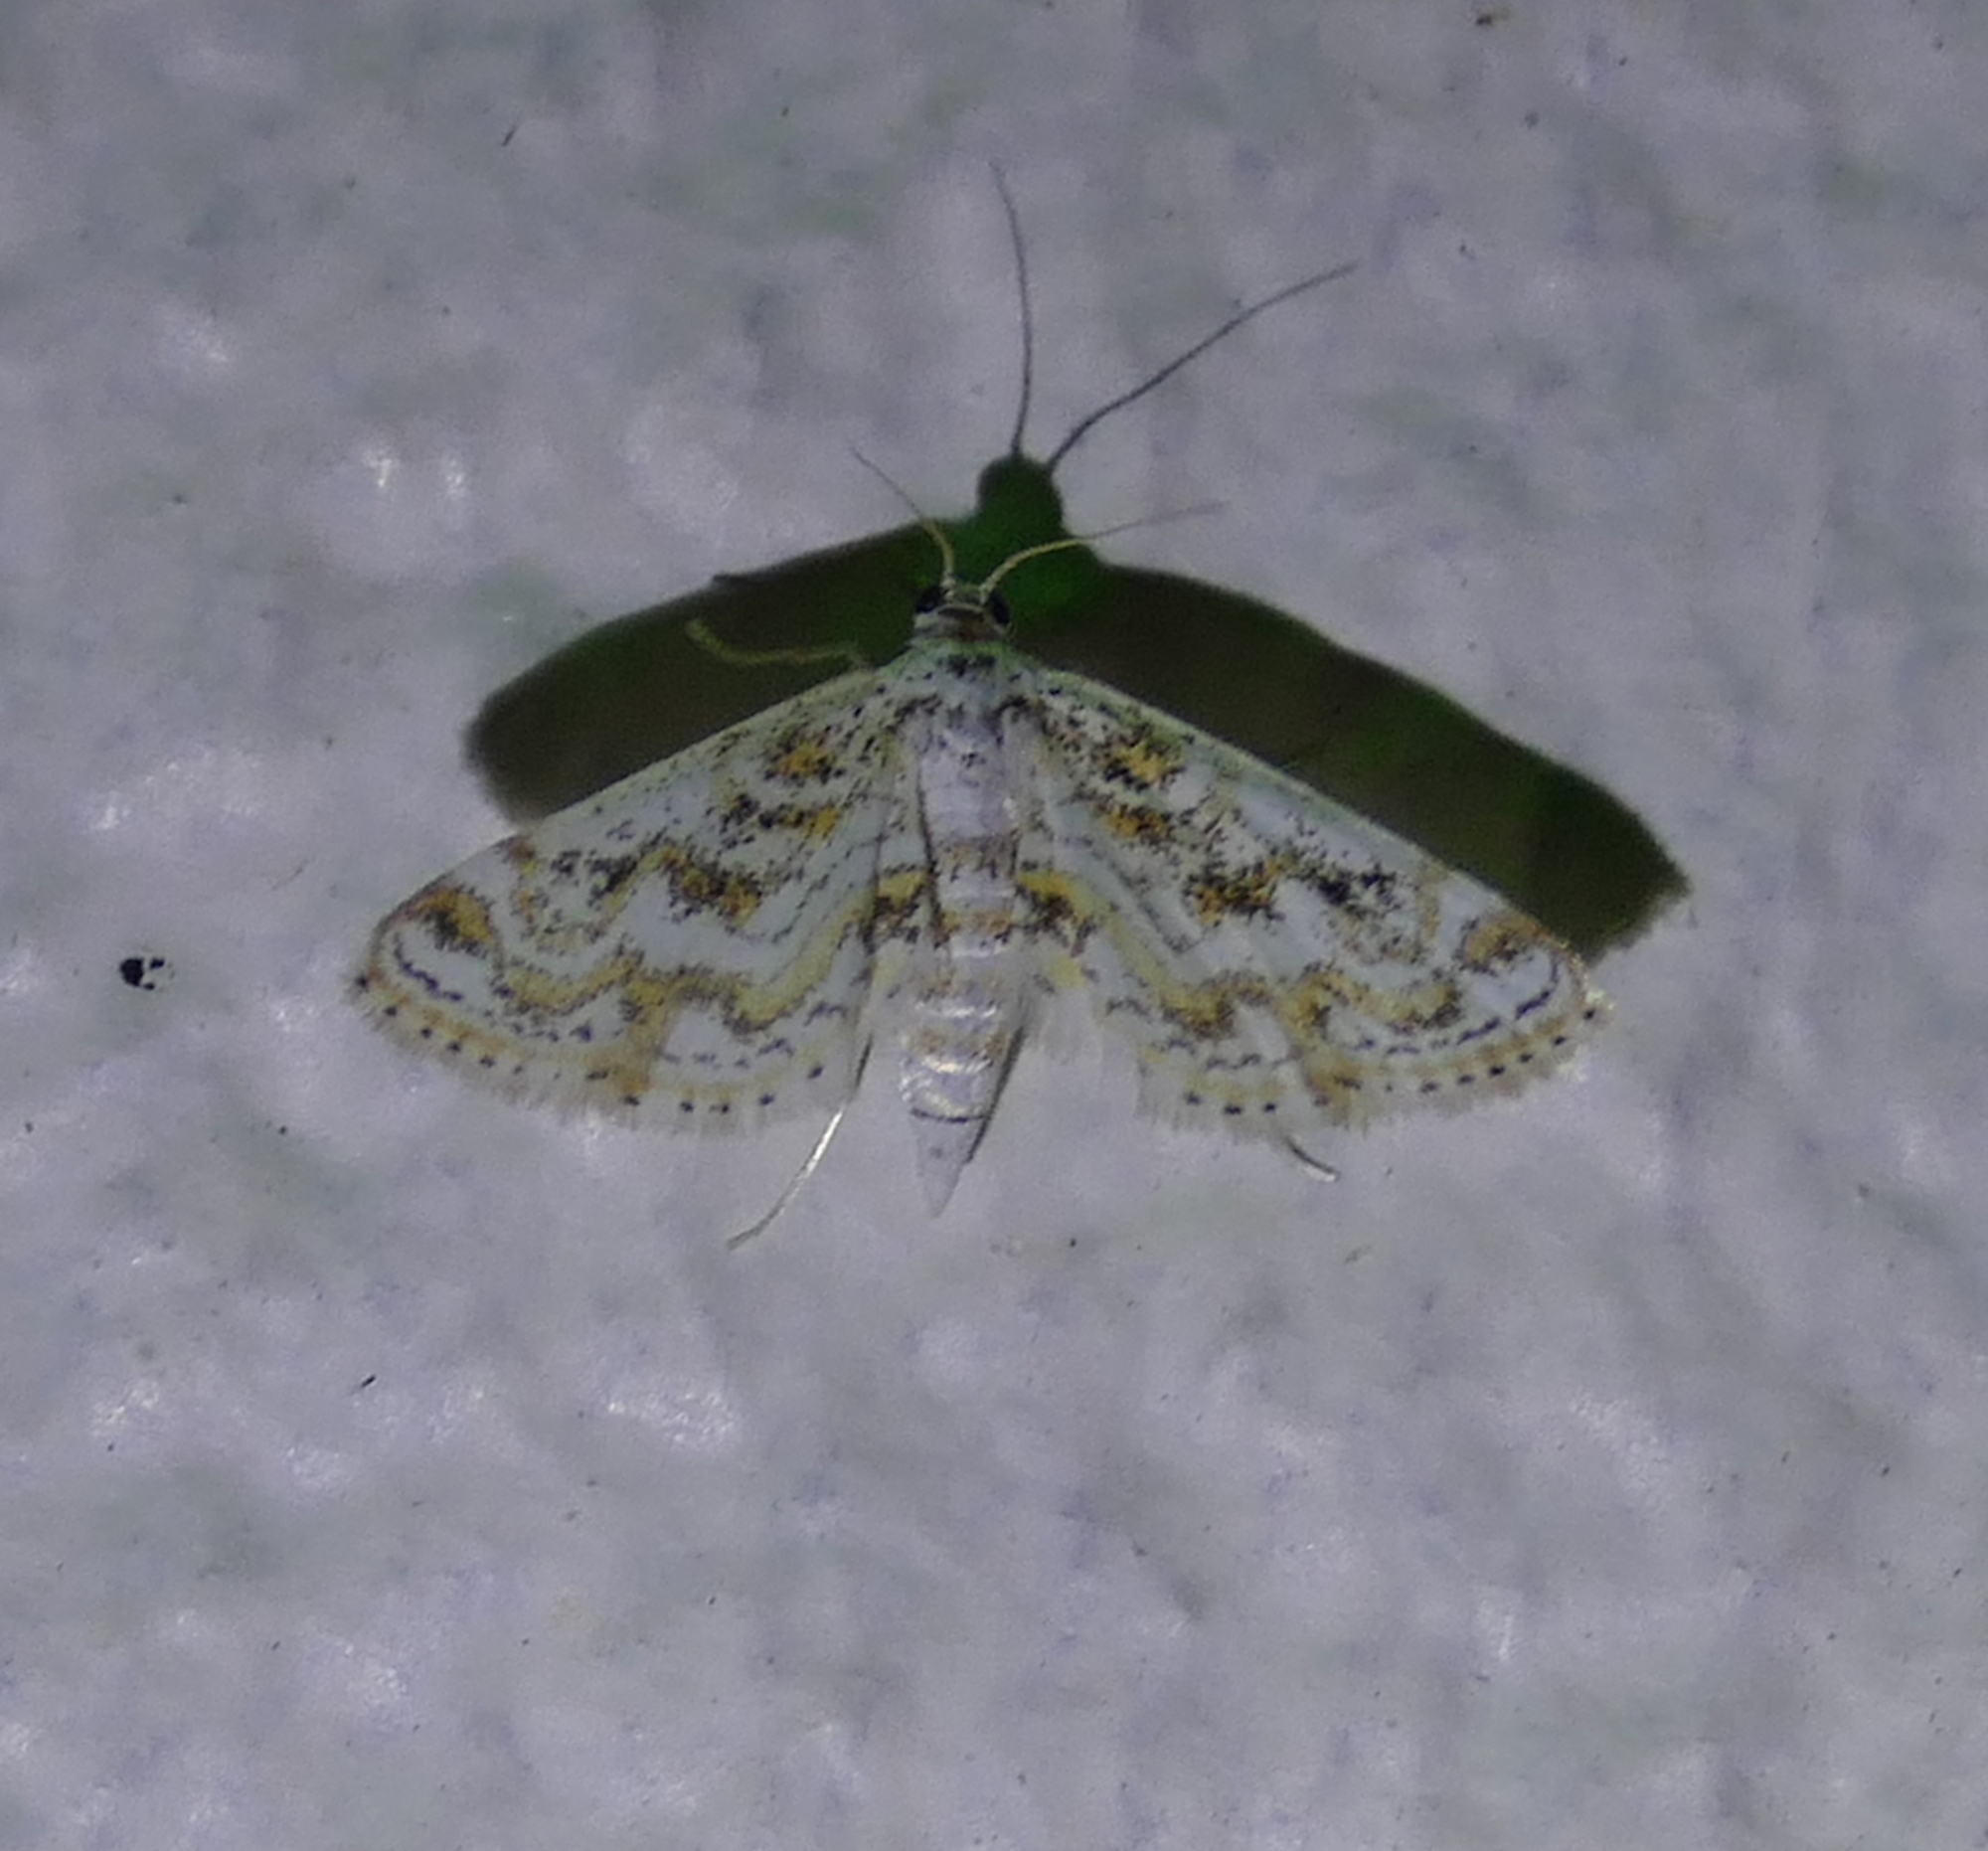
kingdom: Animalia
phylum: Arthropoda
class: Insecta
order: Lepidoptera
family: Crambidae
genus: Parapoynx
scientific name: Parapoynx diminutalis
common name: Hydrilla leafcutter
